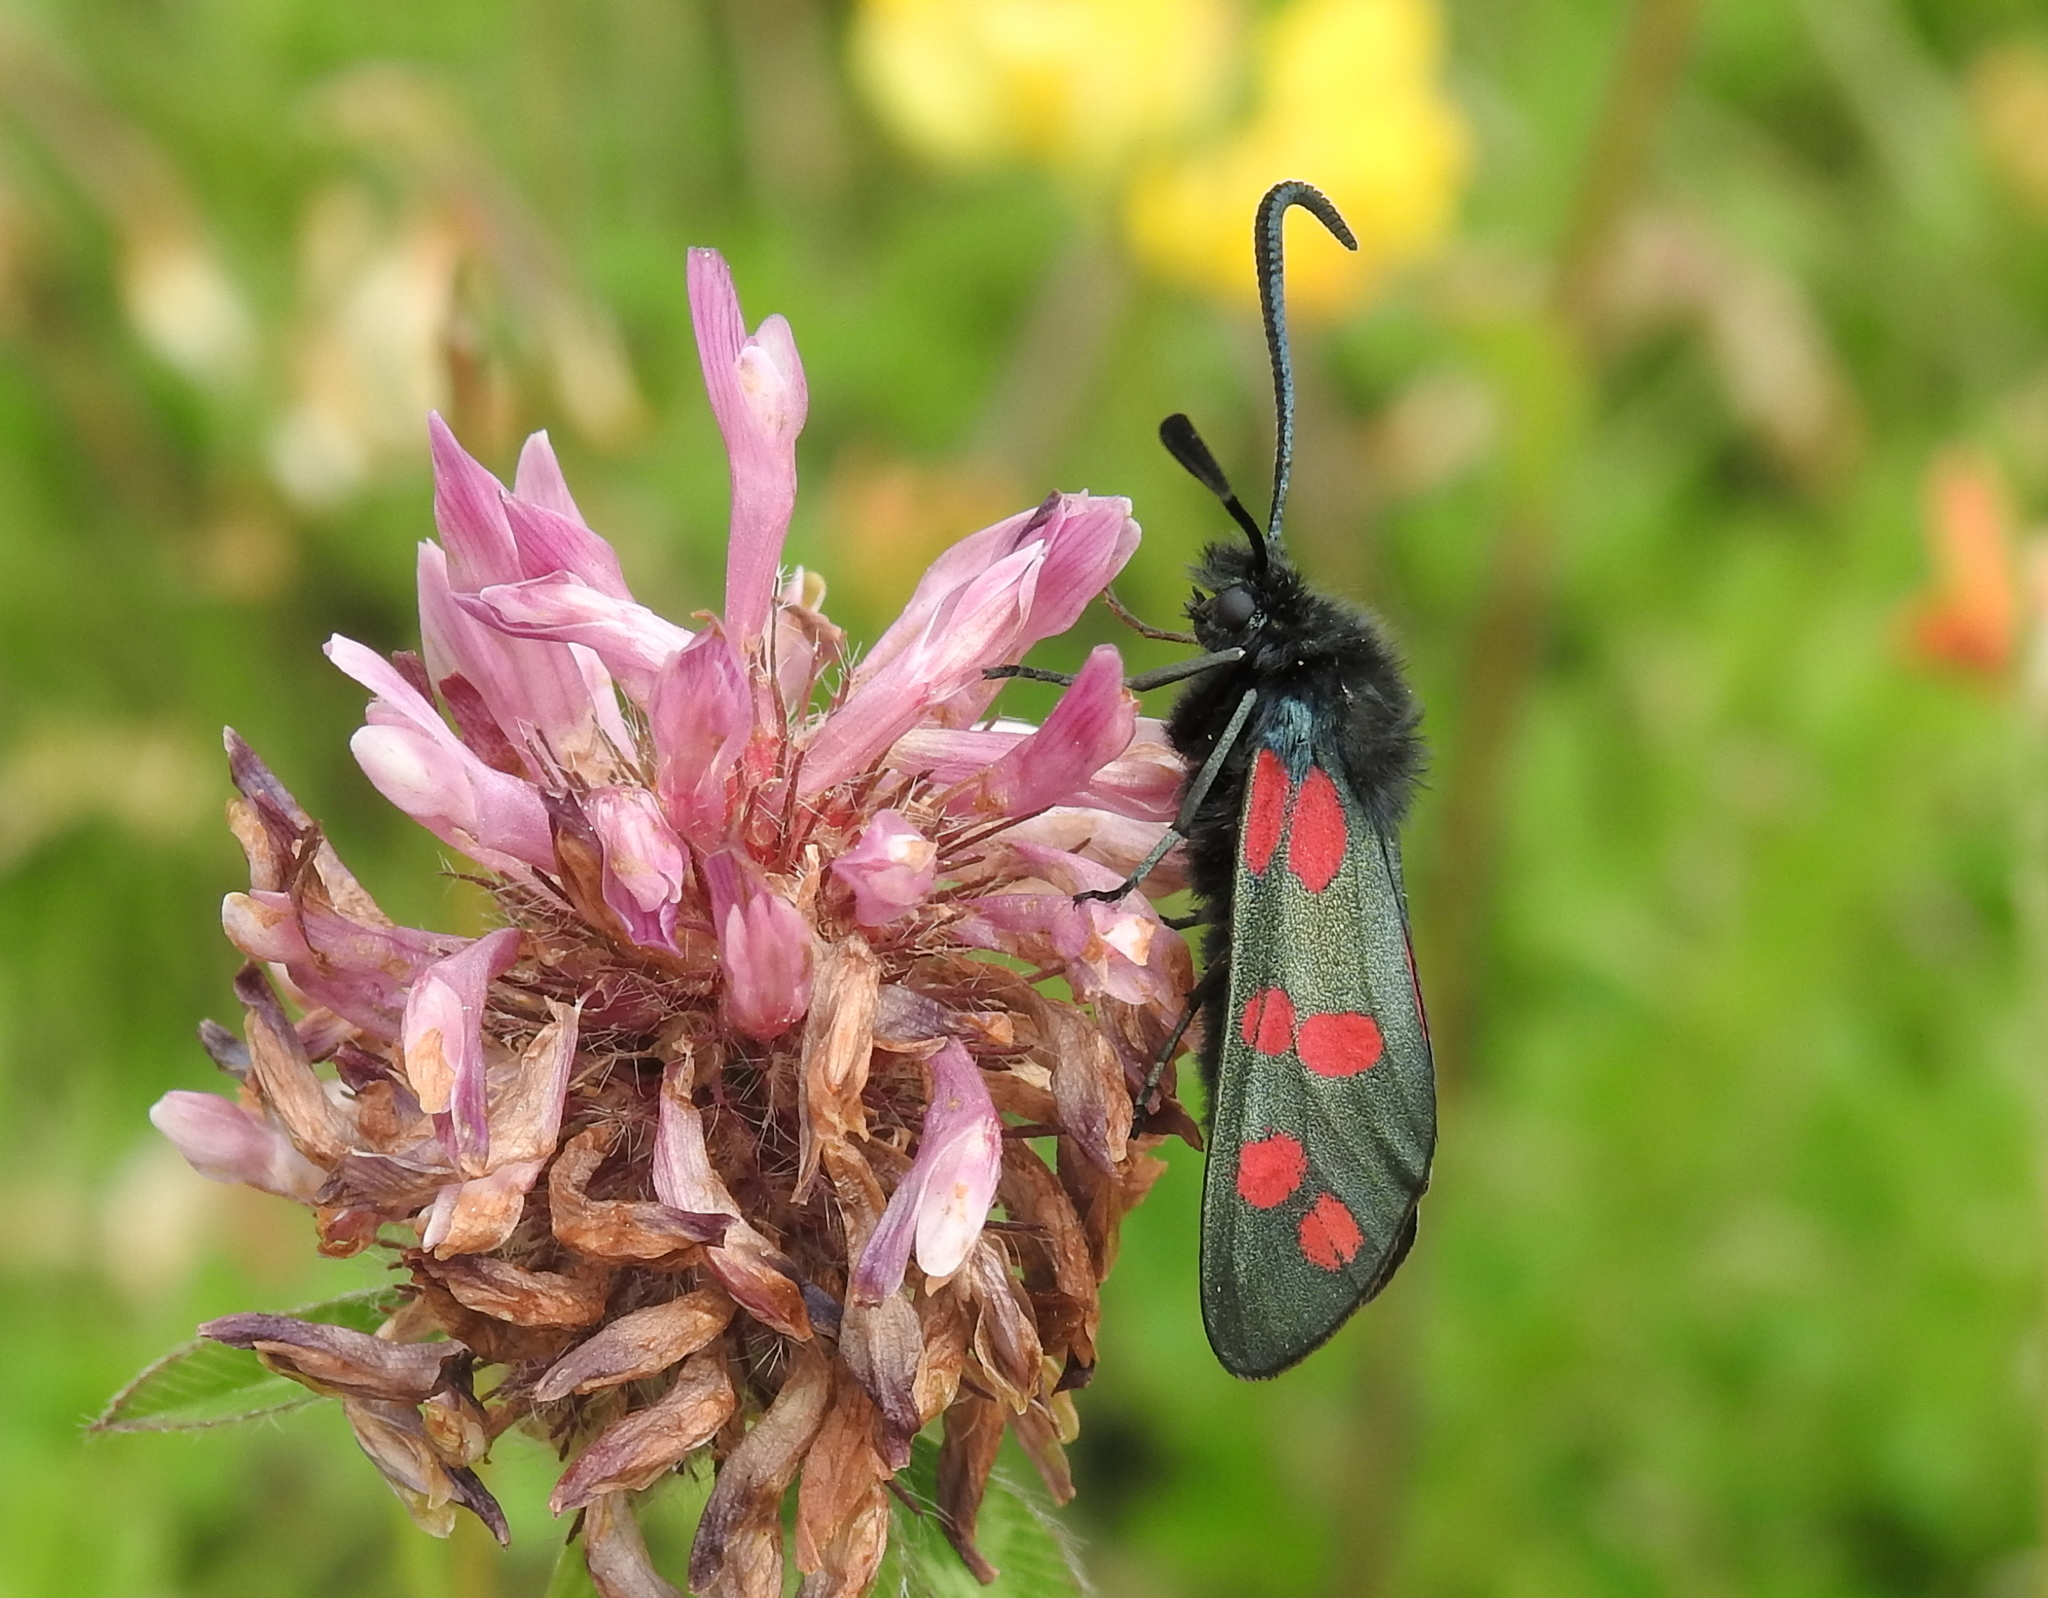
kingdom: Animalia
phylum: Arthropoda
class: Insecta
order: Lepidoptera
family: Zygaenidae
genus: Zygaena
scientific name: Zygaena filipendulae
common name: Six-spot burnet
